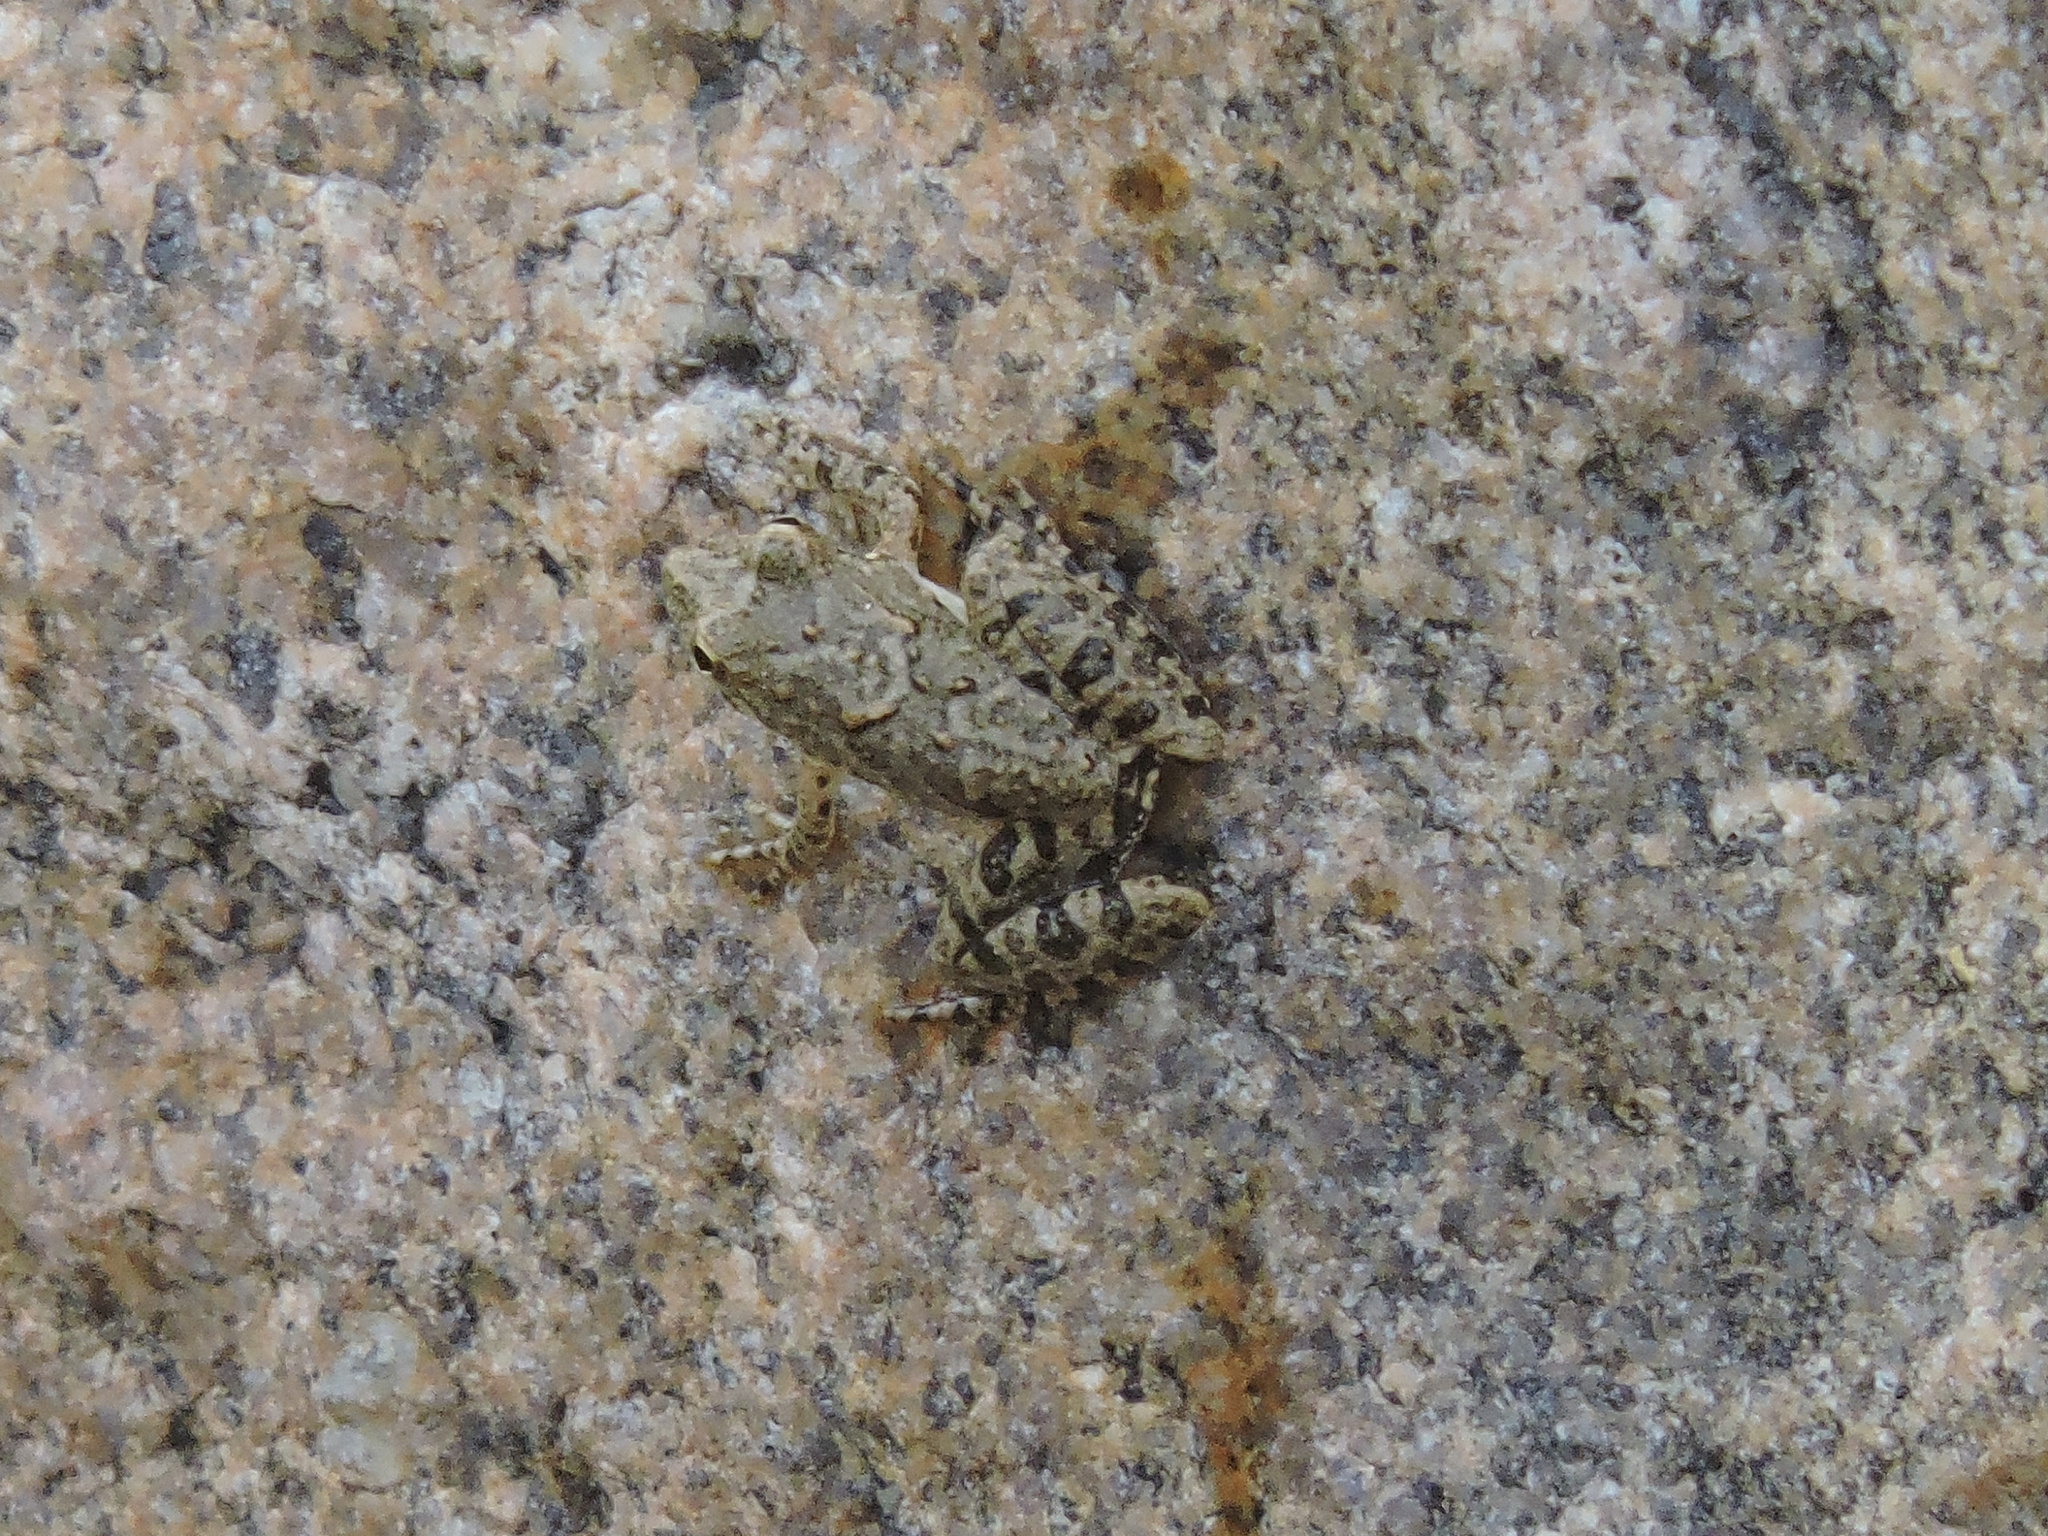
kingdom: Animalia
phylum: Chordata
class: Amphibia
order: Anura
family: Hylidae
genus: Acris
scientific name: Acris blanchardi
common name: Blanchard's cricket frog
